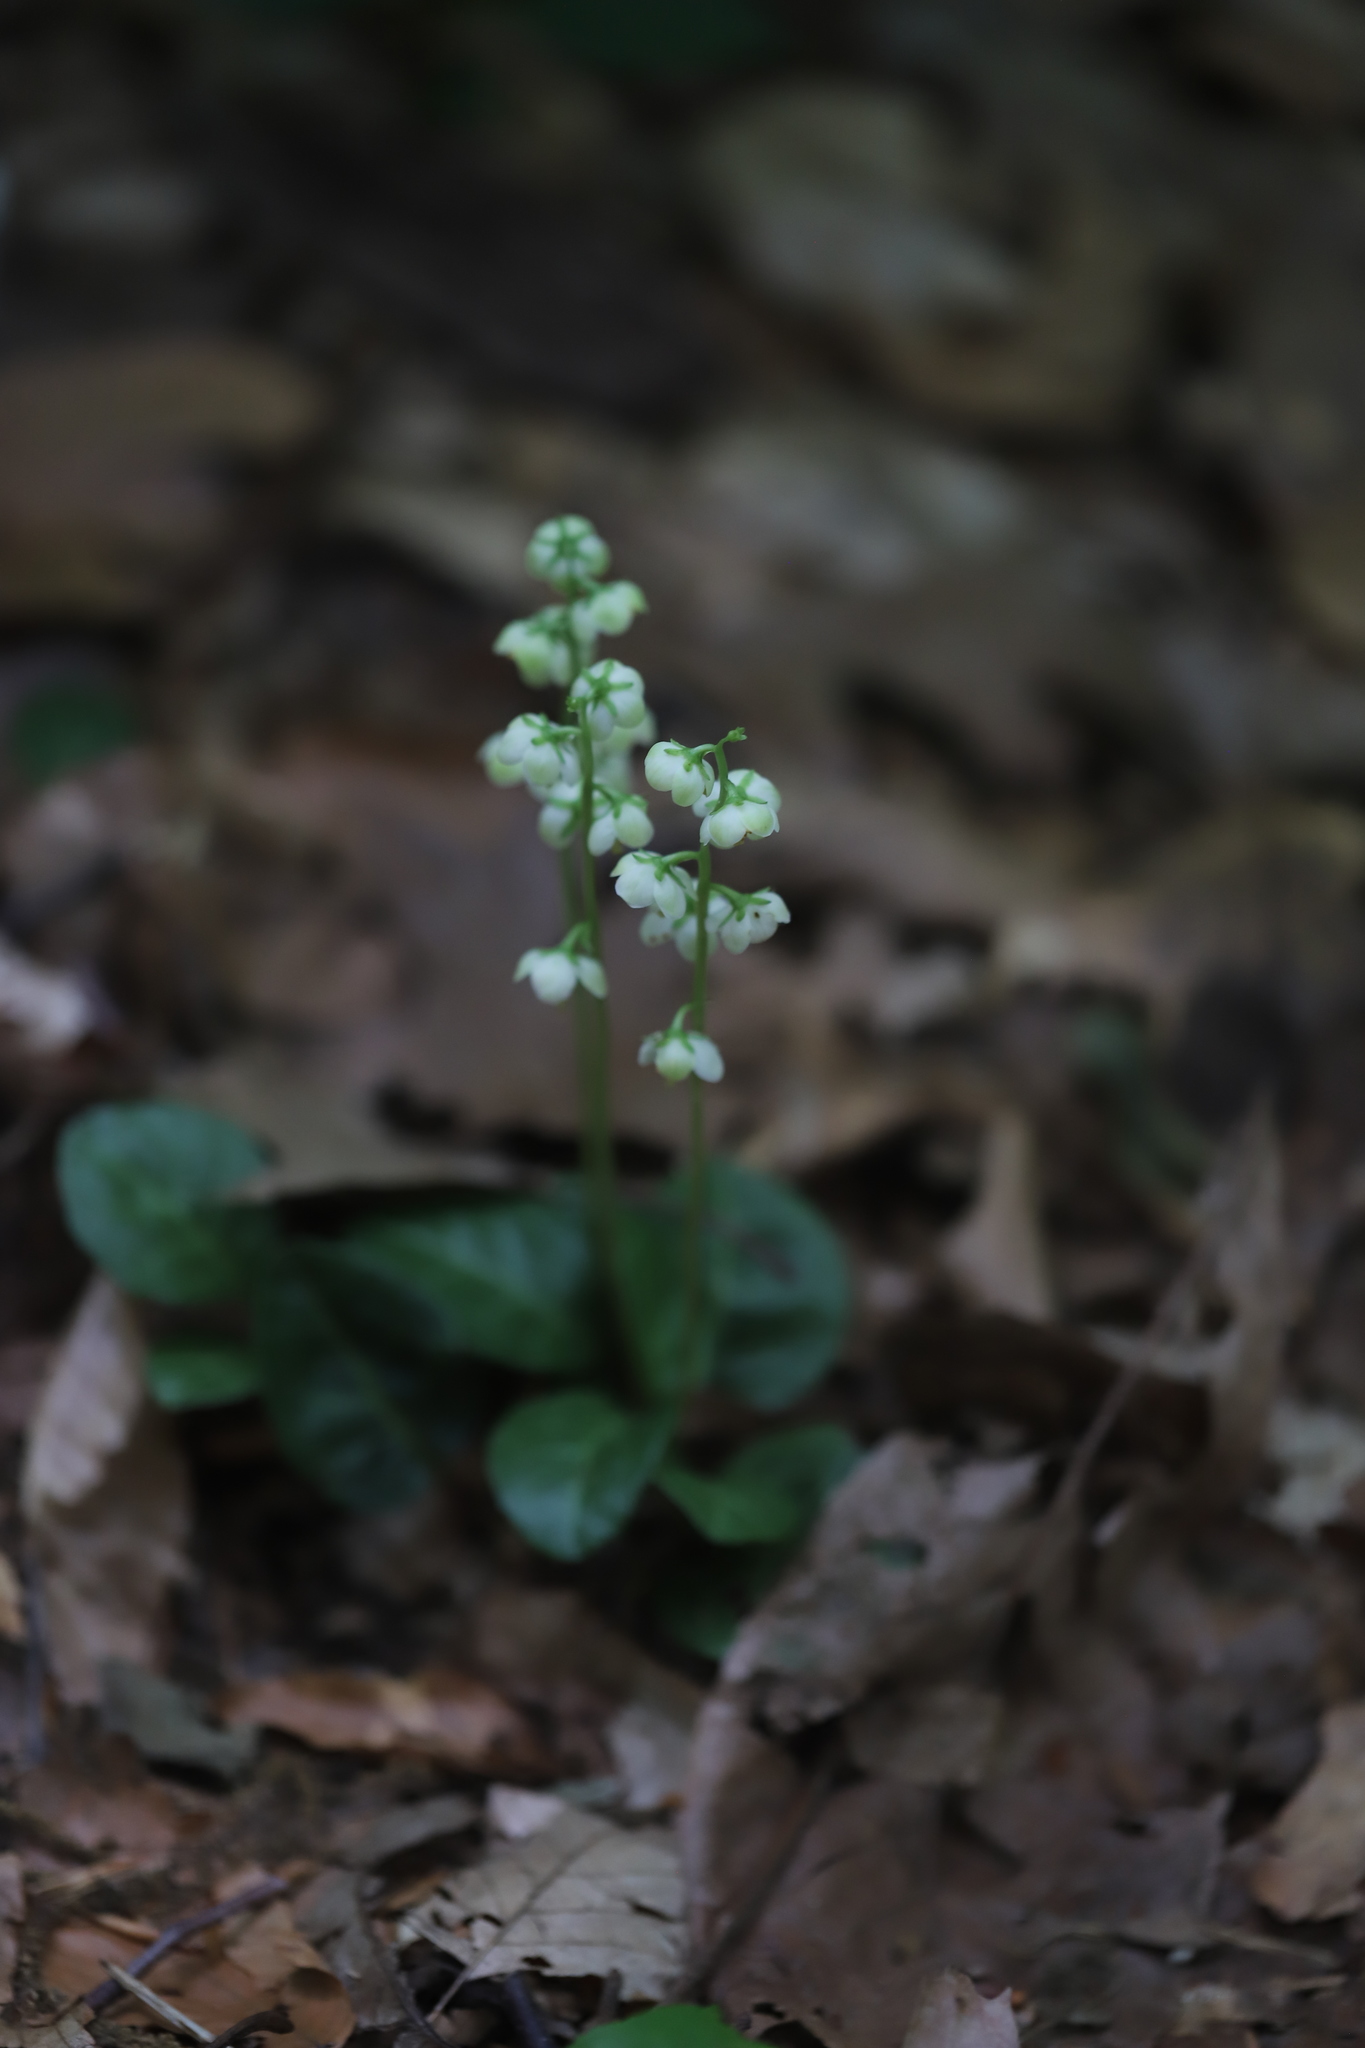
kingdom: Plantae
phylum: Tracheophyta
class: Magnoliopsida
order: Ericales
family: Ericaceae
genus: Pyrola
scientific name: Pyrola americana
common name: American wintergreen
